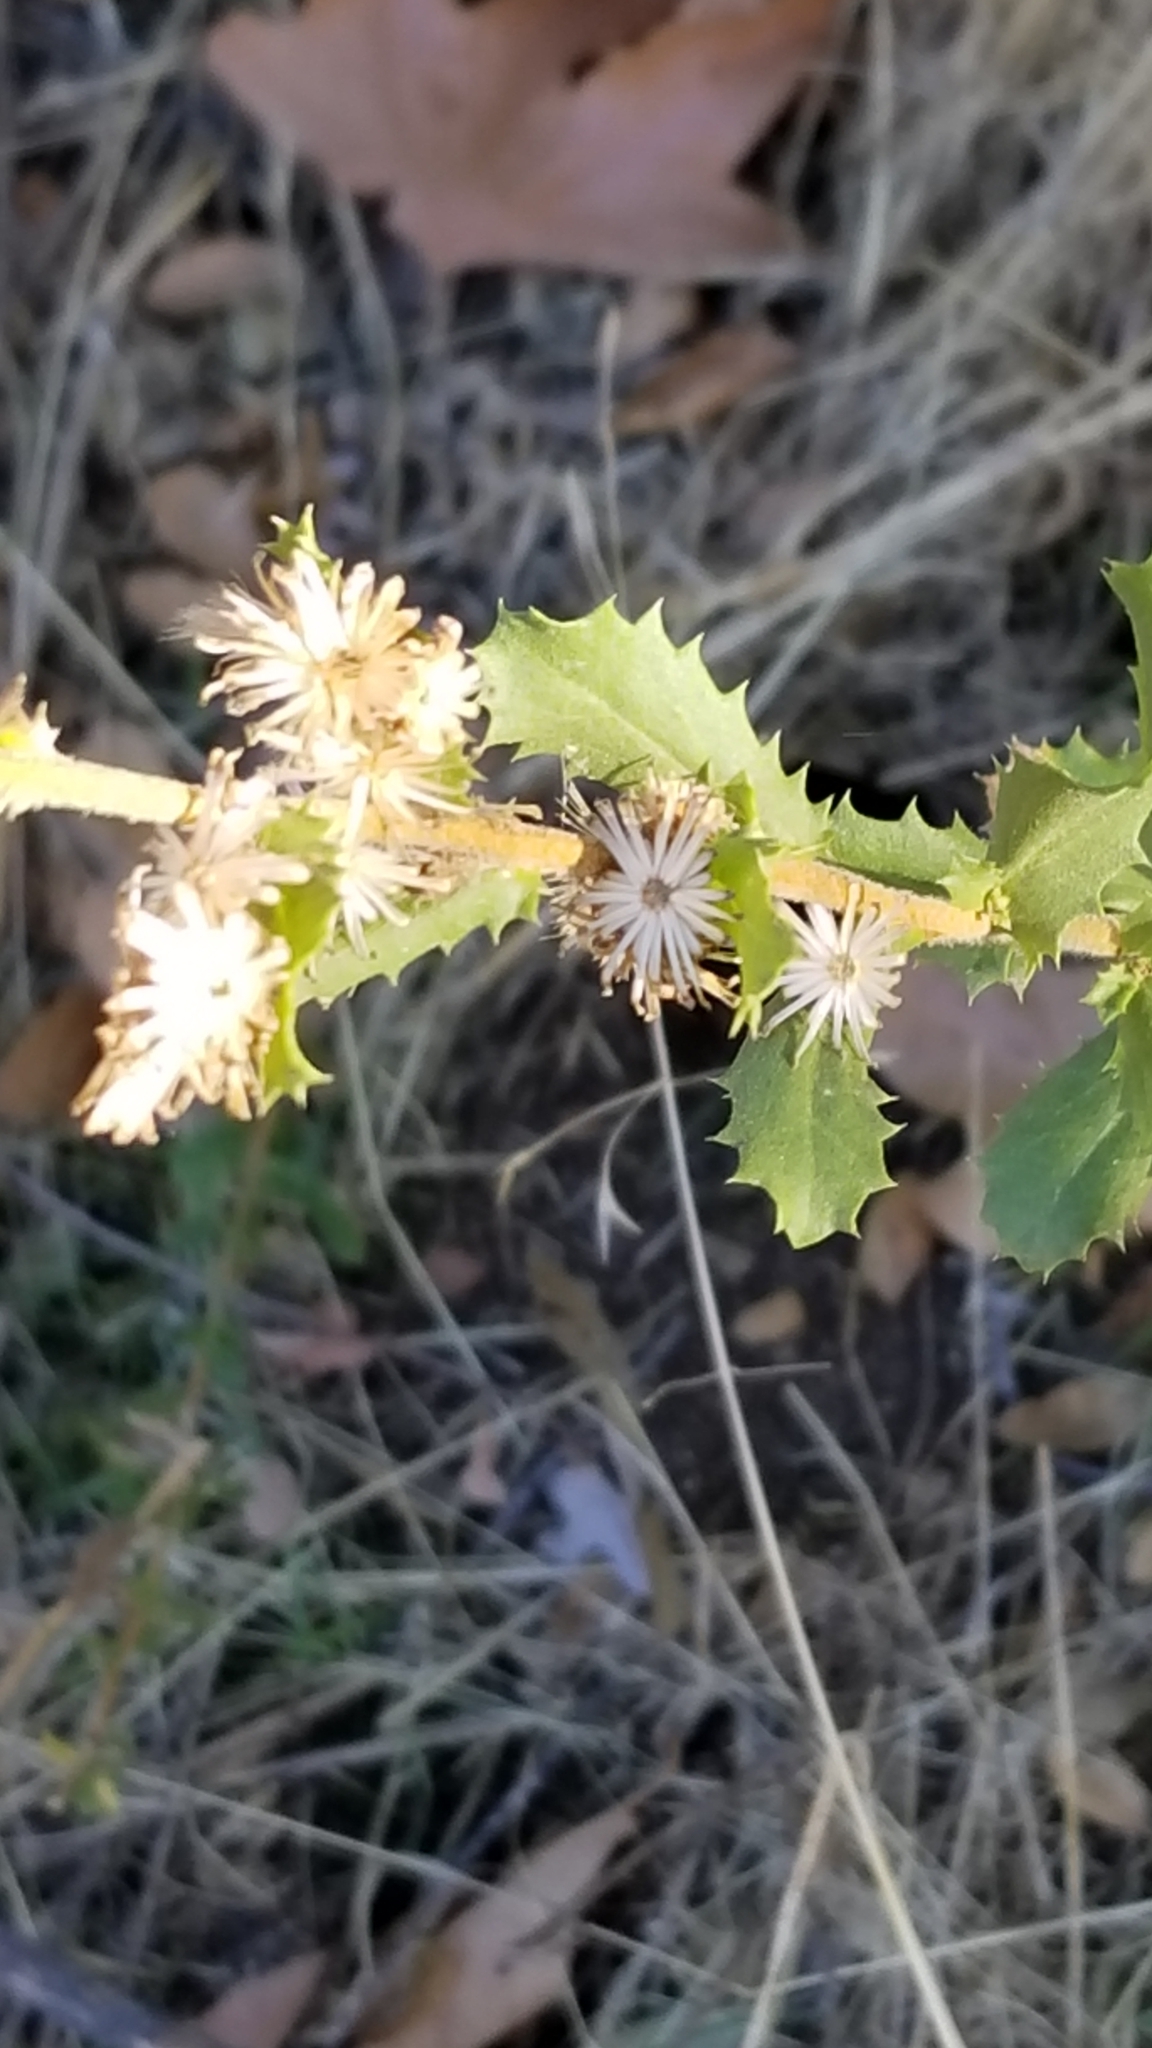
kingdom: Plantae
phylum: Tracheophyta
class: Magnoliopsida
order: Asterales
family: Asteraceae
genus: Hazardia
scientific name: Hazardia squarrosa
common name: Saw-tooth goldenbush
